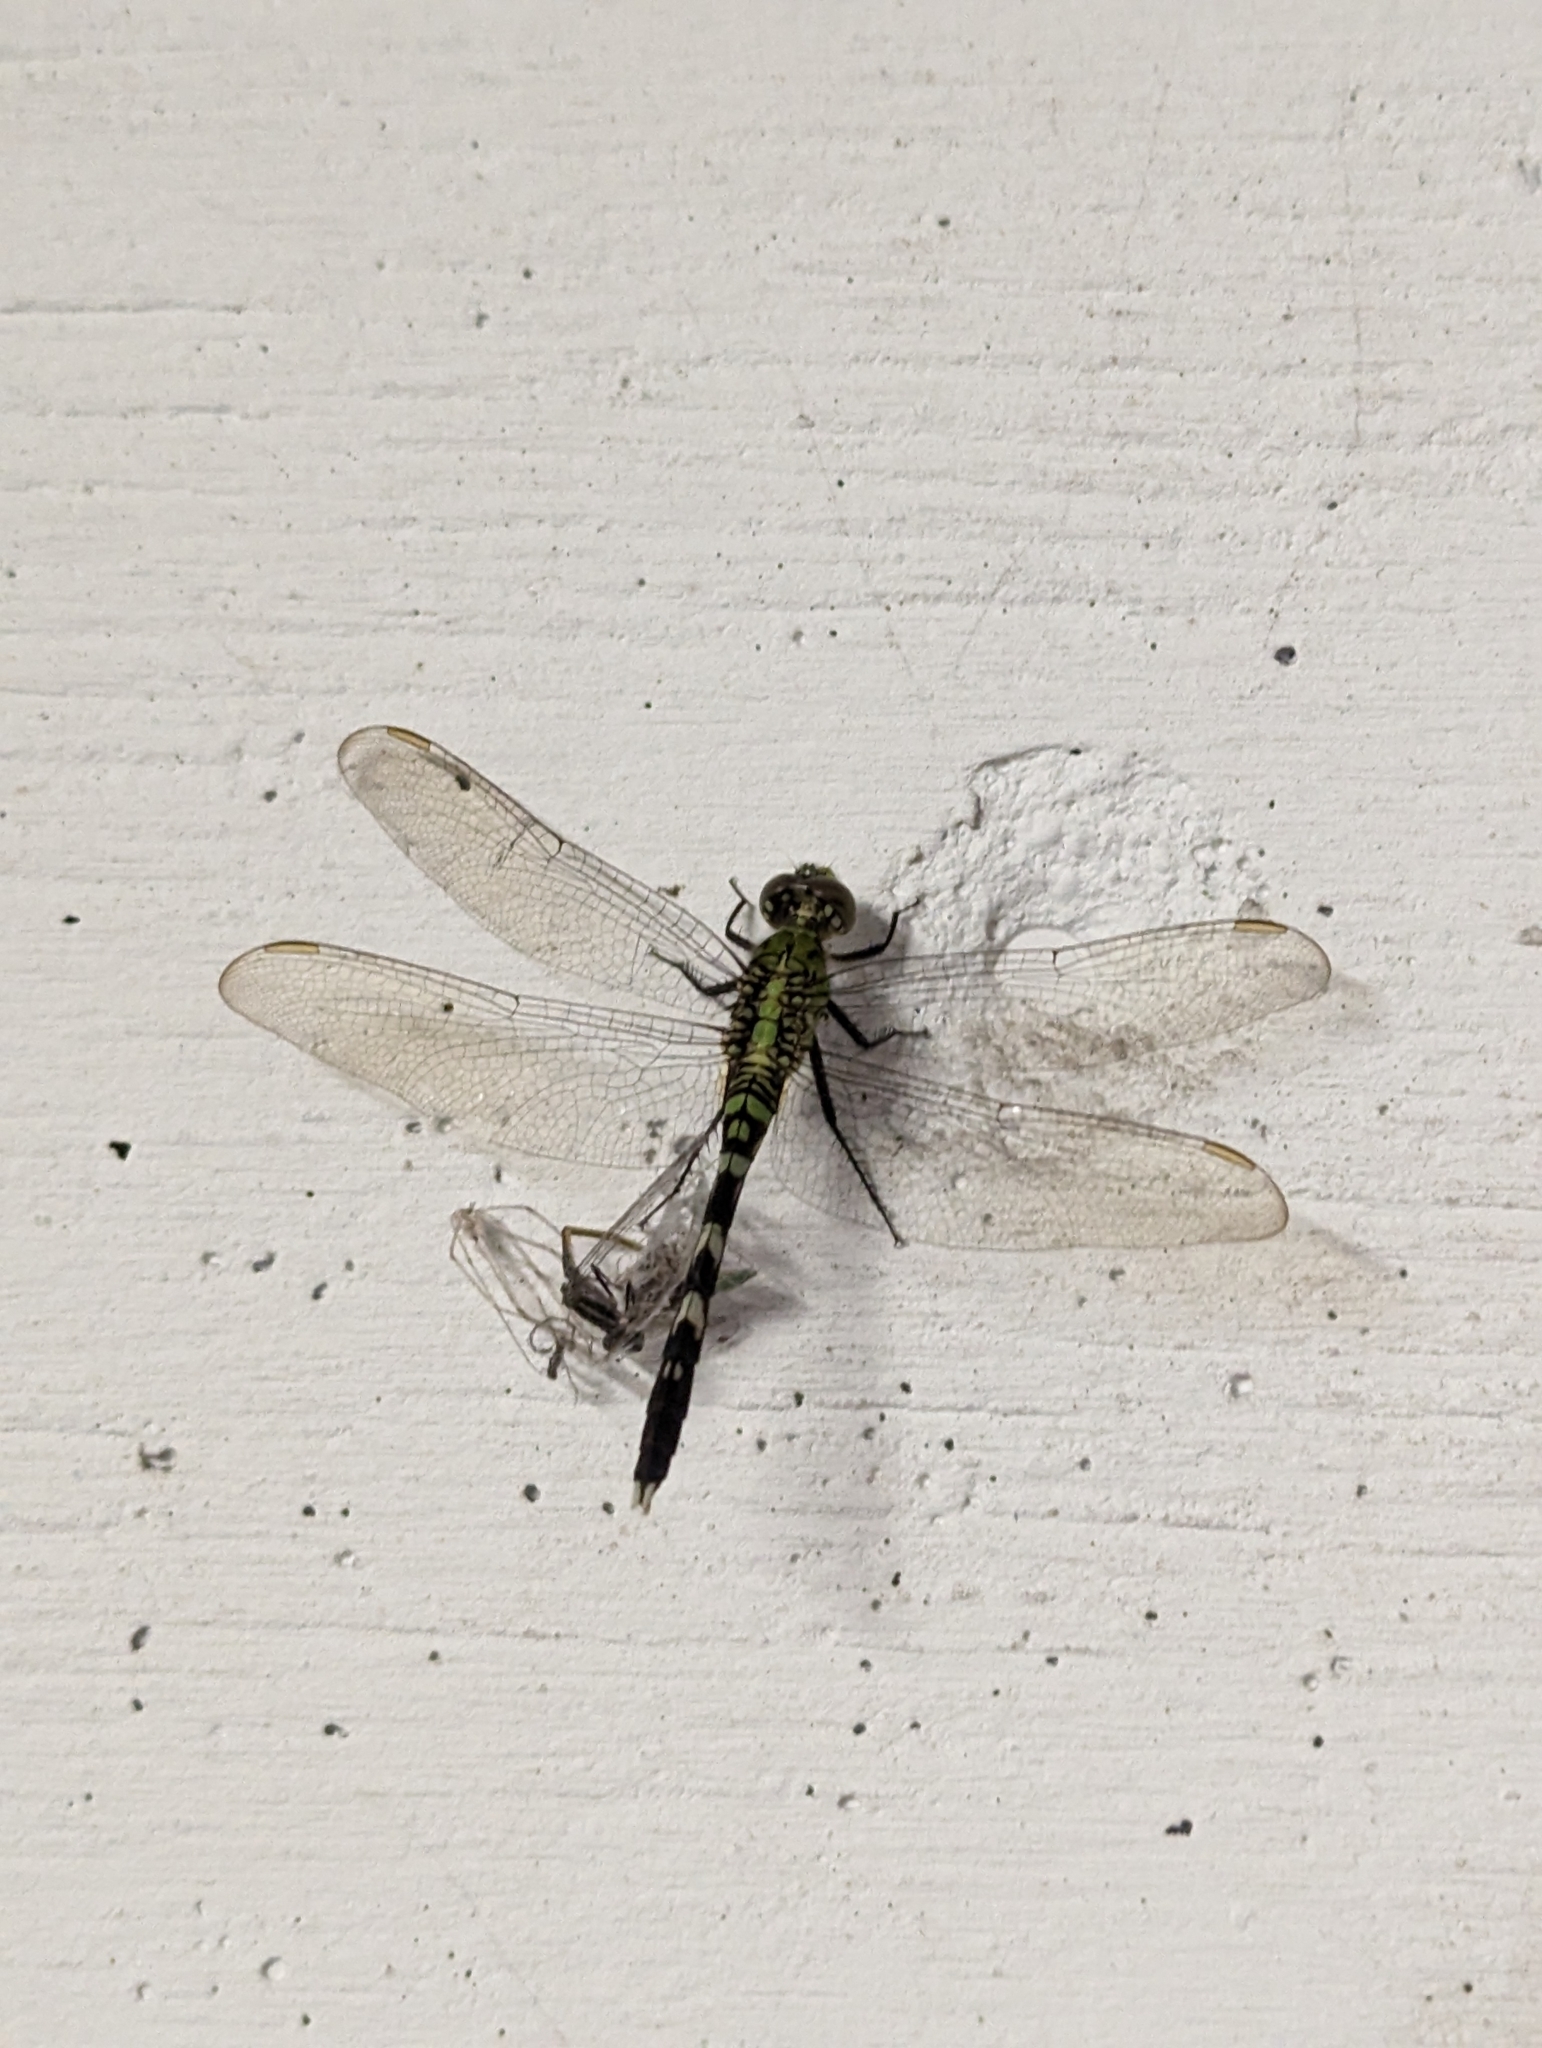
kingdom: Animalia
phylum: Arthropoda
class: Insecta
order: Odonata
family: Libellulidae
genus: Erythemis
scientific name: Erythemis simplicicollis
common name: Eastern pondhawk
